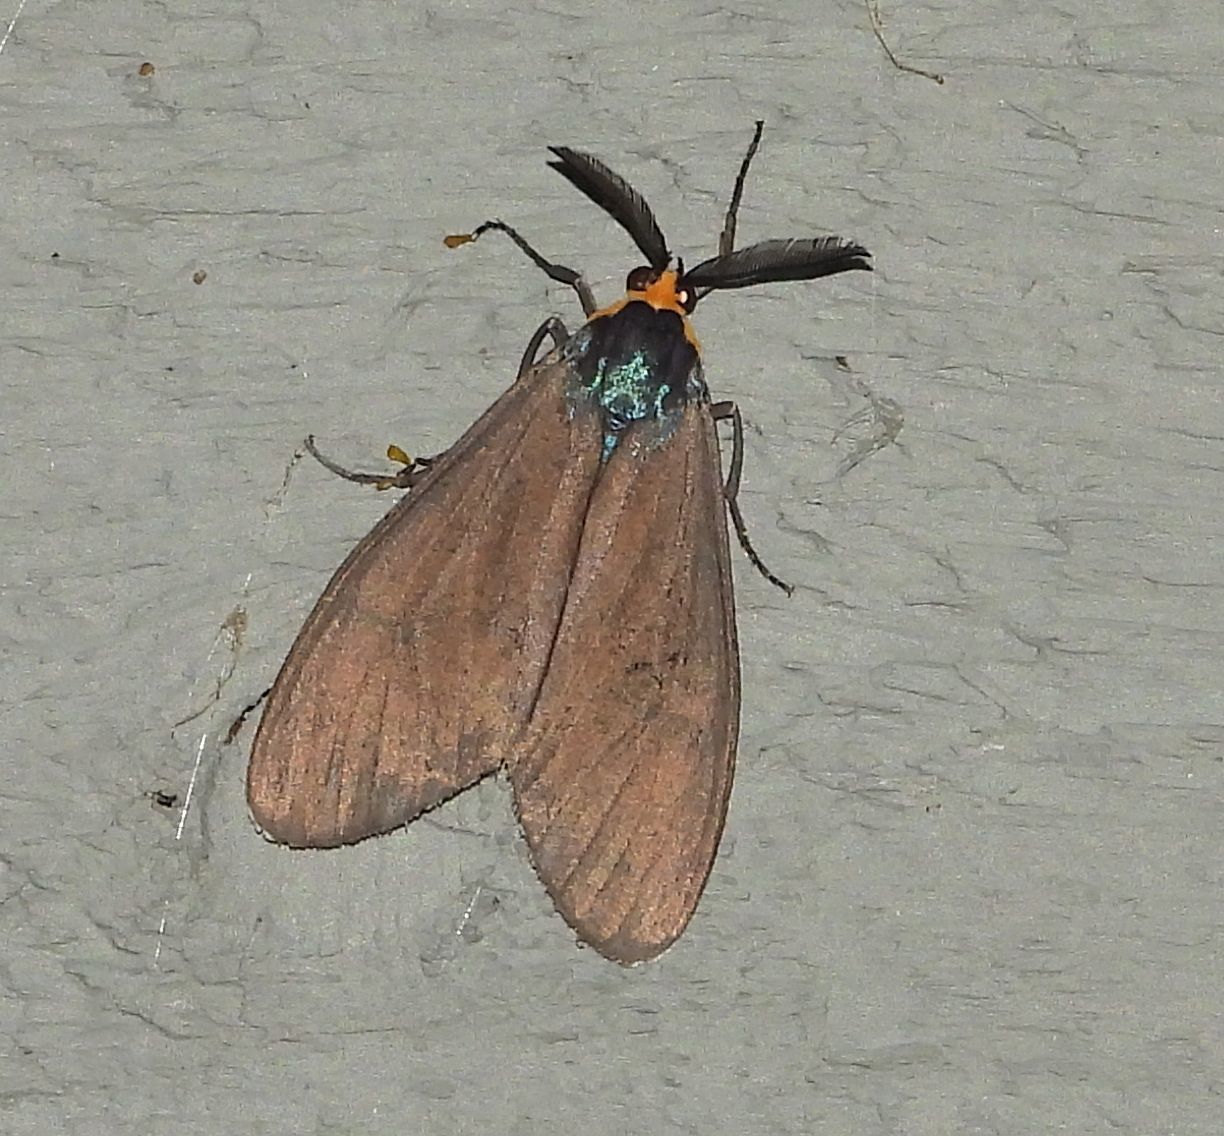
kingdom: Animalia
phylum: Arthropoda
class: Insecta
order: Lepidoptera
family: Erebidae
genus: Ctenucha
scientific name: Ctenucha virginica
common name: Virginia ctenucha moth
